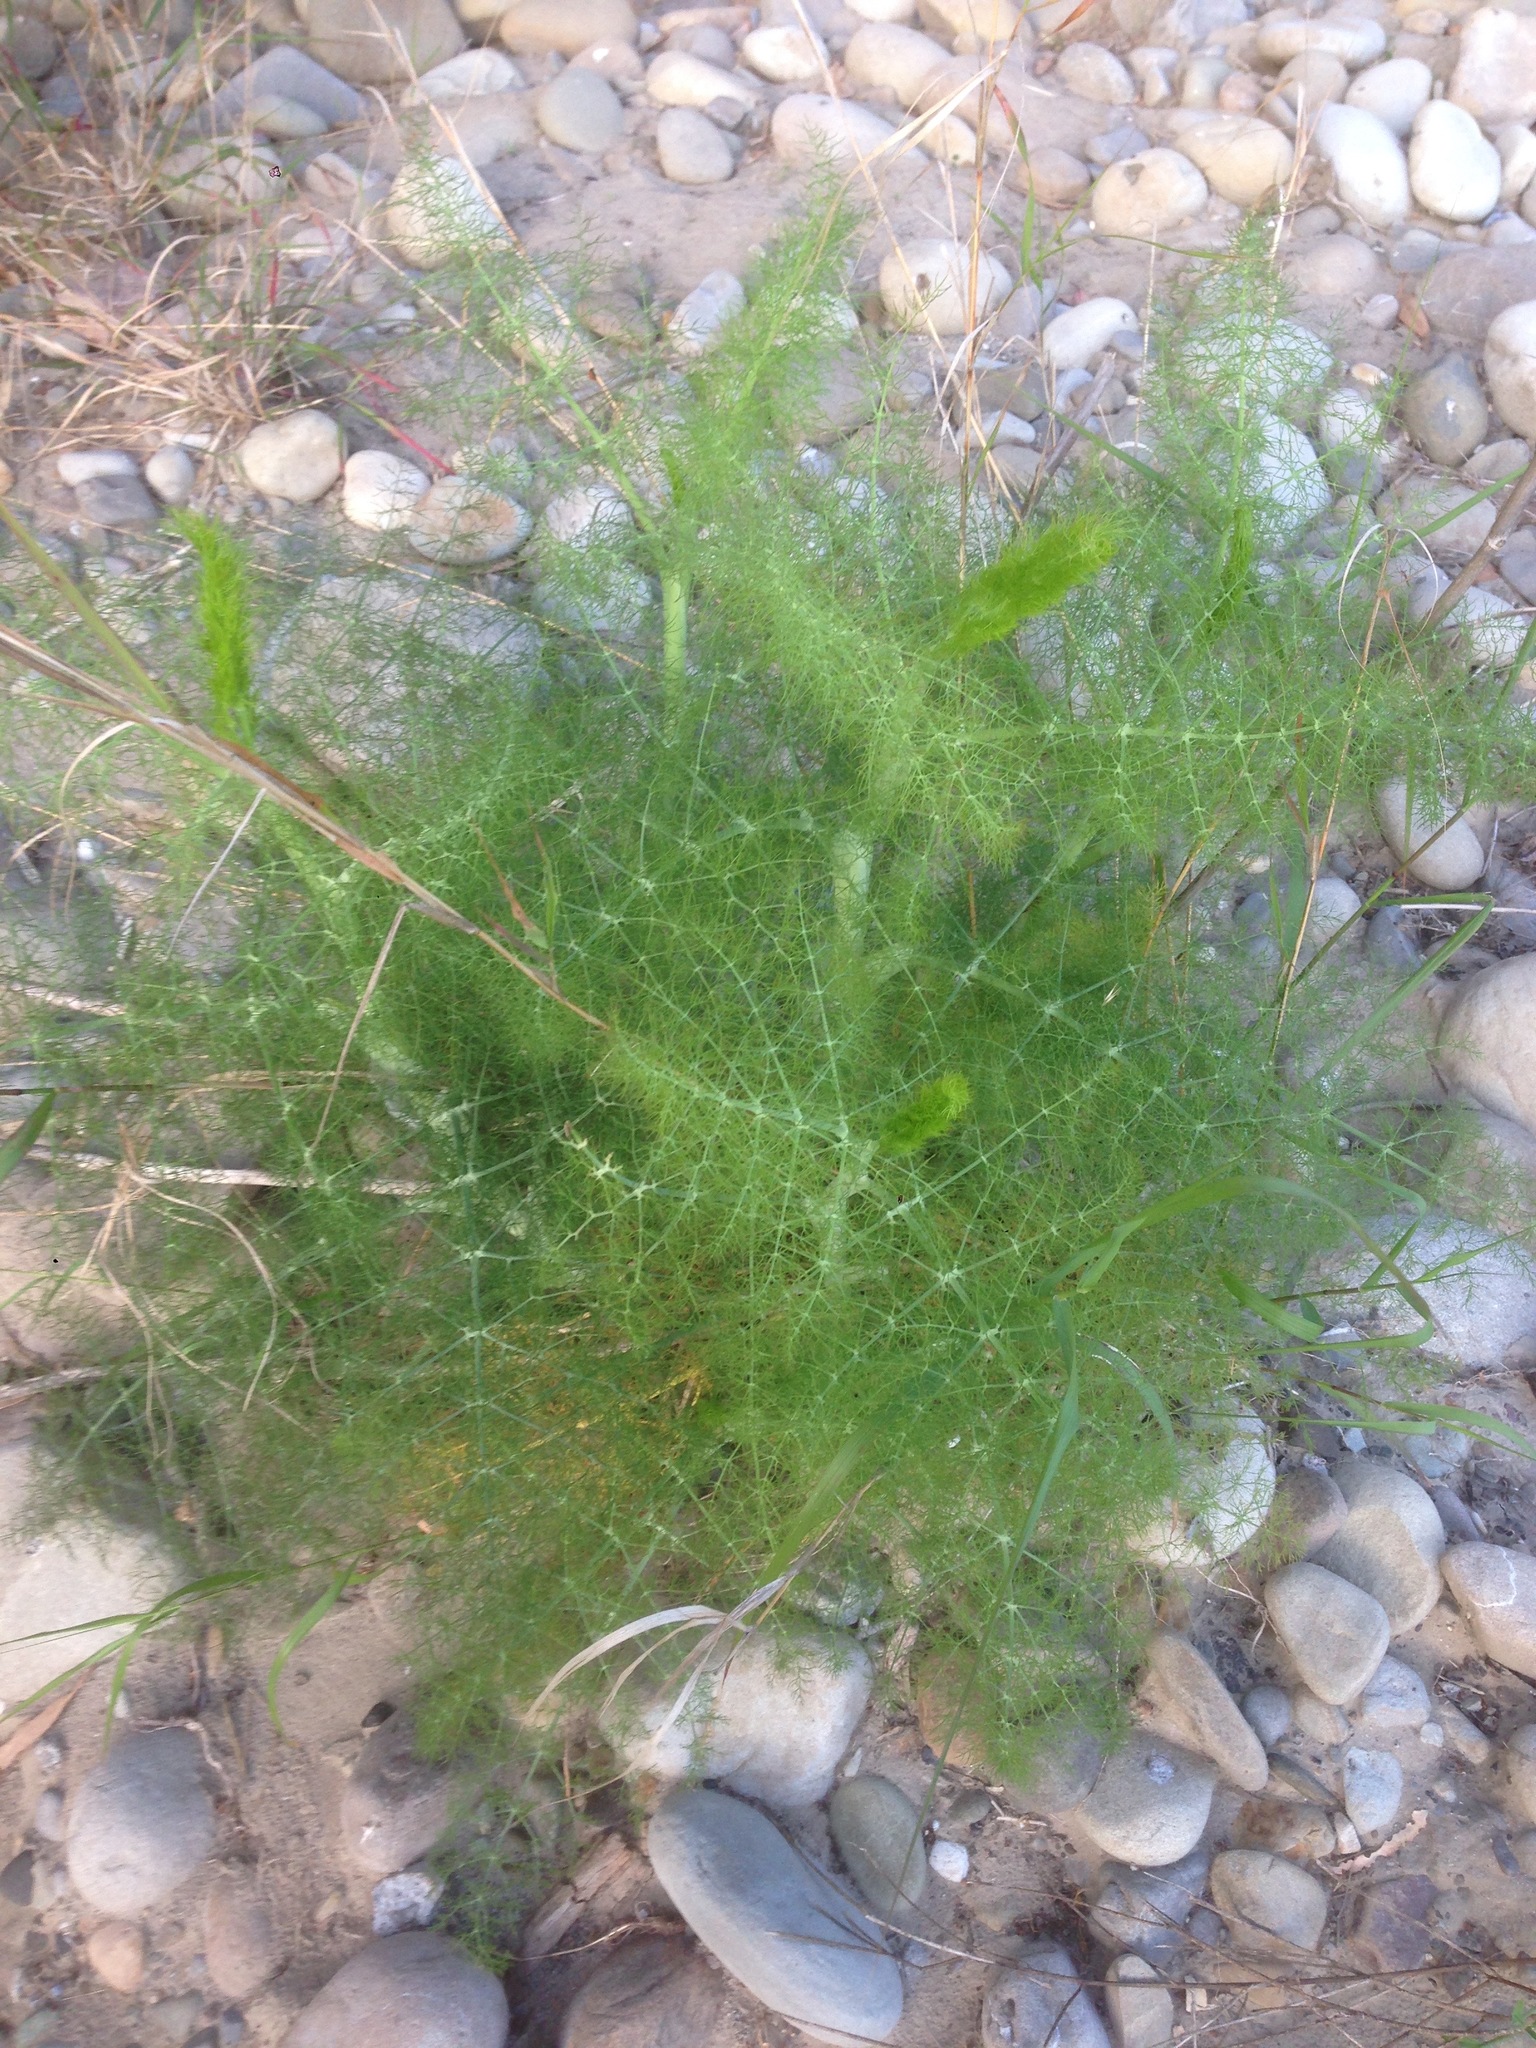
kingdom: Plantae
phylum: Tracheophyta
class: Magnoliopsida
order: Apiales
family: Apiaceae
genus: Foeniculum
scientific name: Foeniculum vulgare
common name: Fennel
